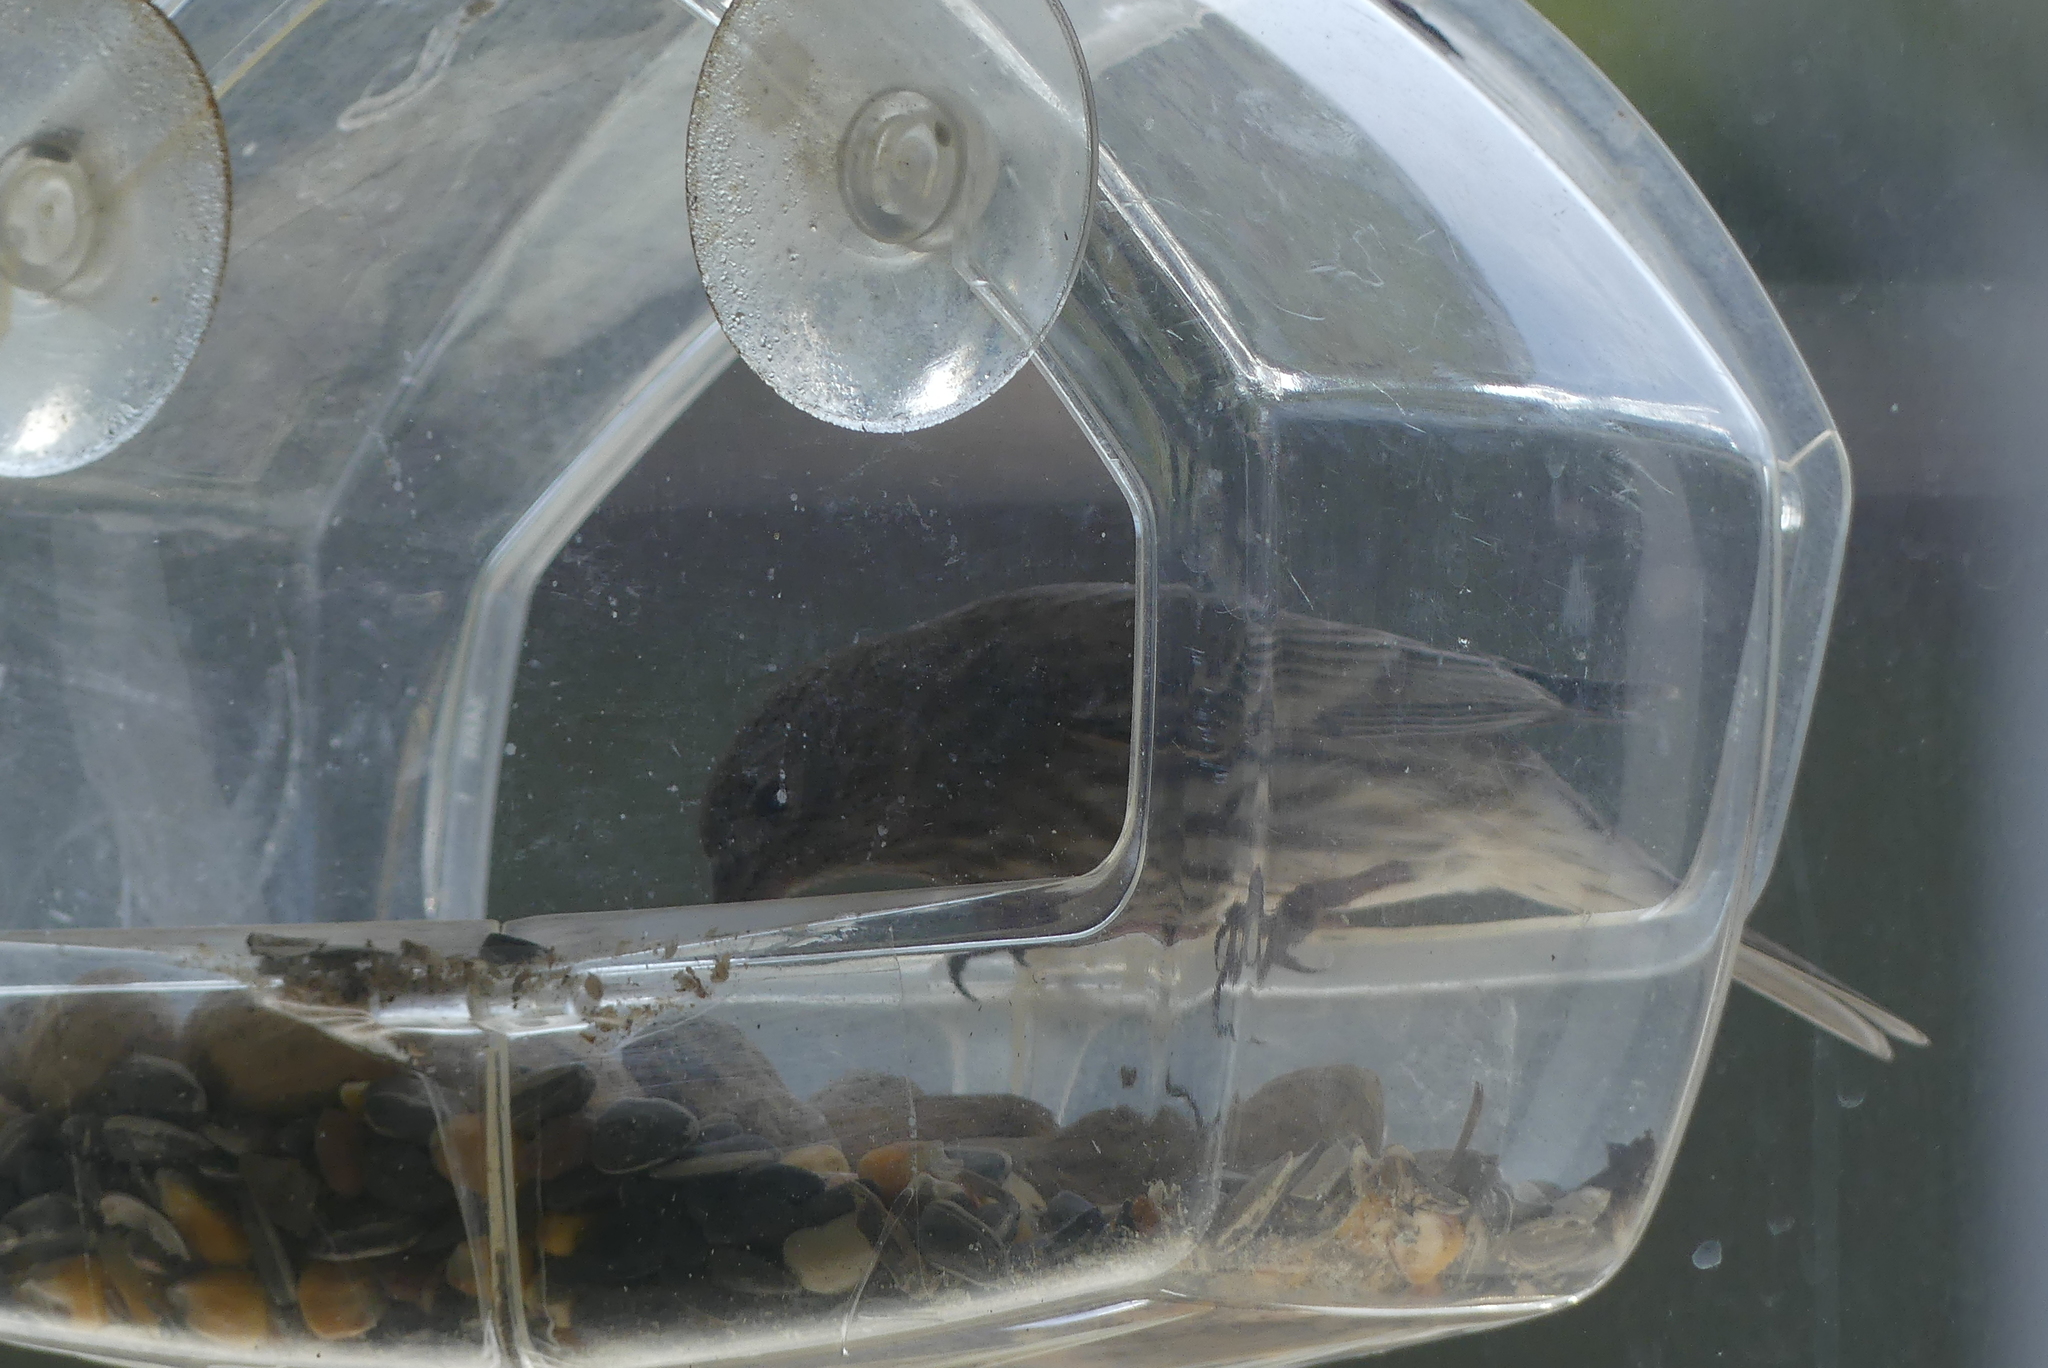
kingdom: Animalia
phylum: Chordata
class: Aves
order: Passeriformes
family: Fringillidae
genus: Haemorhous
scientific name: Haemorhous mexicanus
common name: House finch
